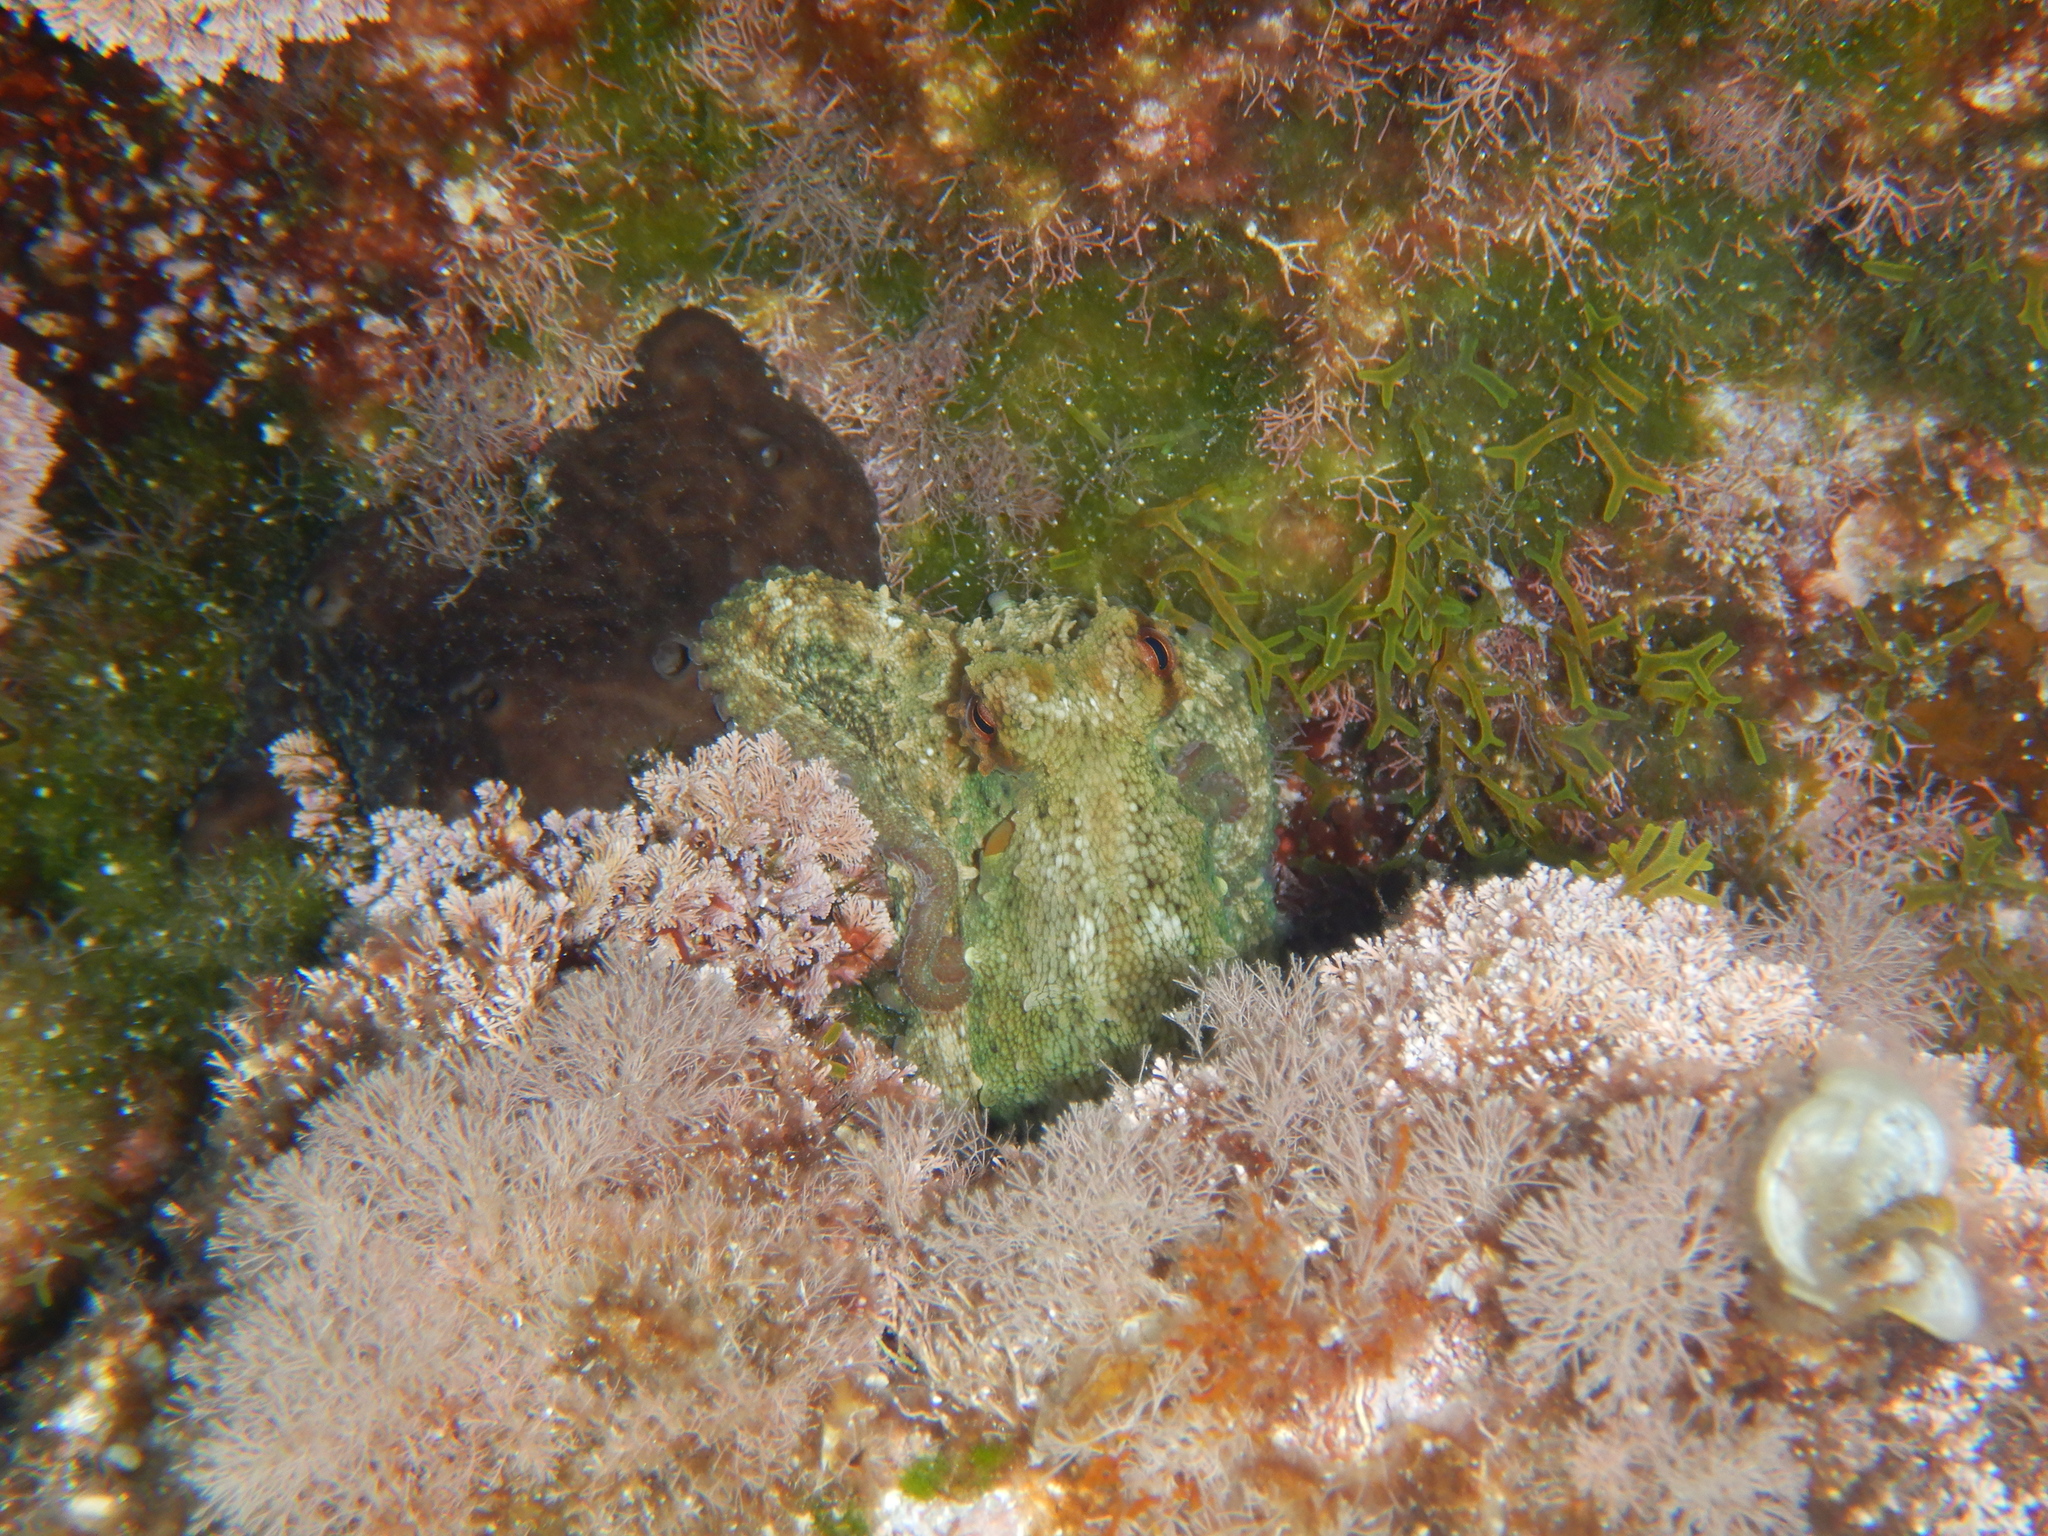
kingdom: Animalia
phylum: Mollusca
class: Cephalopoda
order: Octopoda
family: Octopodidae
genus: Octopus
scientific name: Octopus vulgaris
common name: Common octopus
